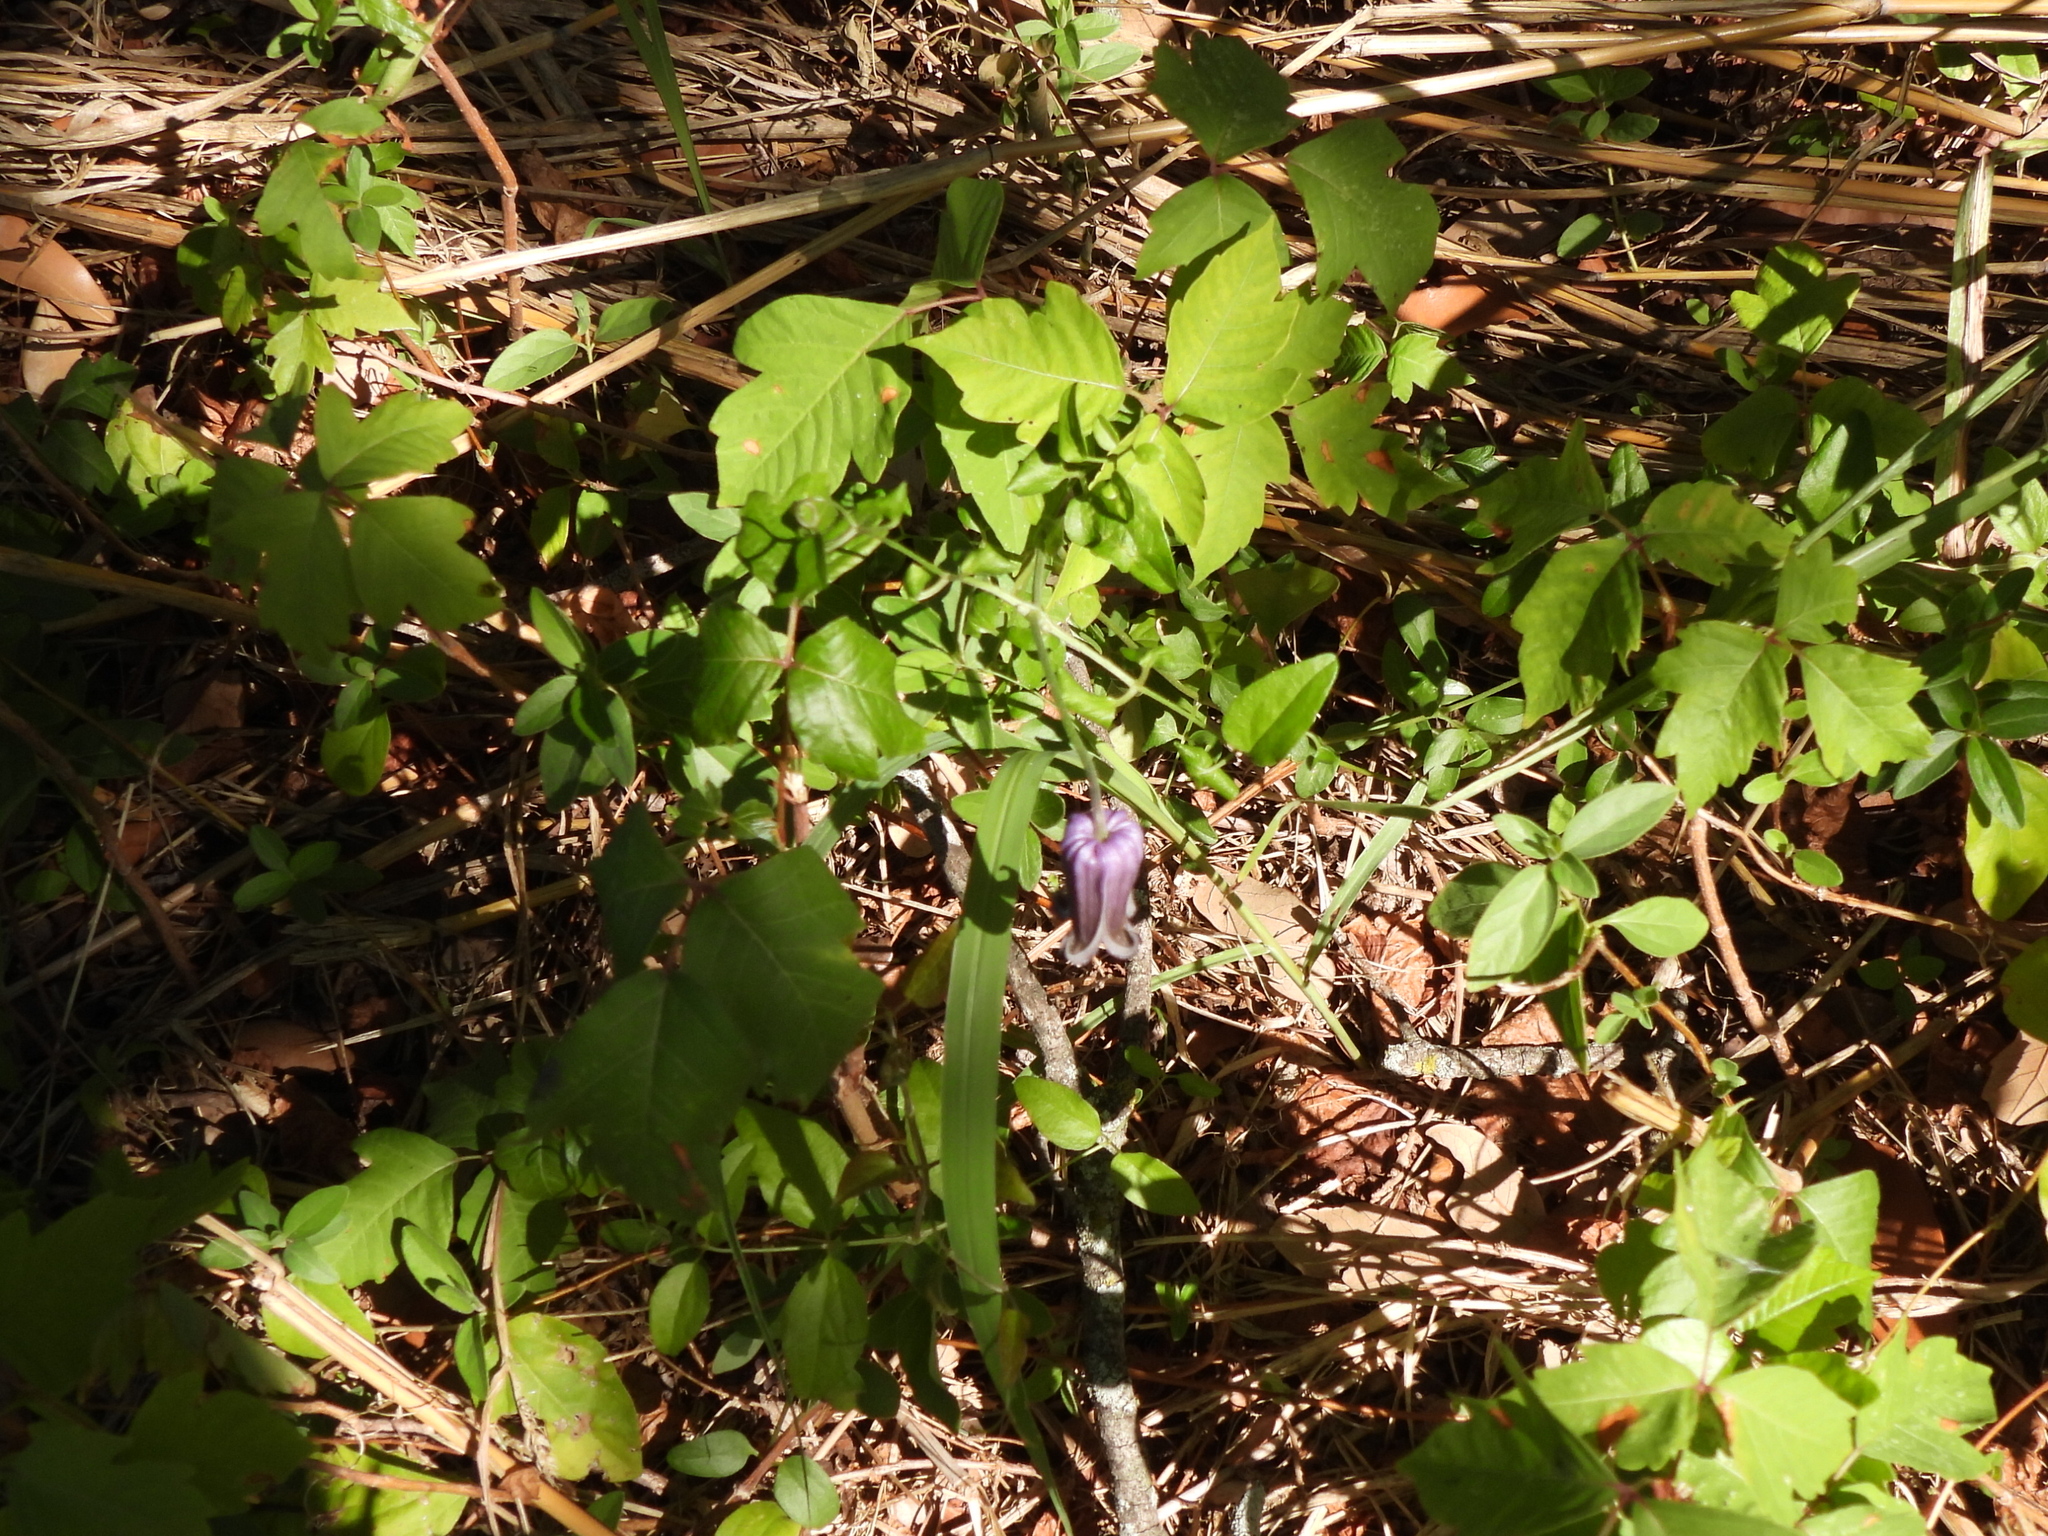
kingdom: Plantae
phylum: Tracheophyta
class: Magnoliopsida
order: Ranunculales
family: Ranunculaceae
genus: Clematis
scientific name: Clematis pitcheri
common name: Bellflower clematis
